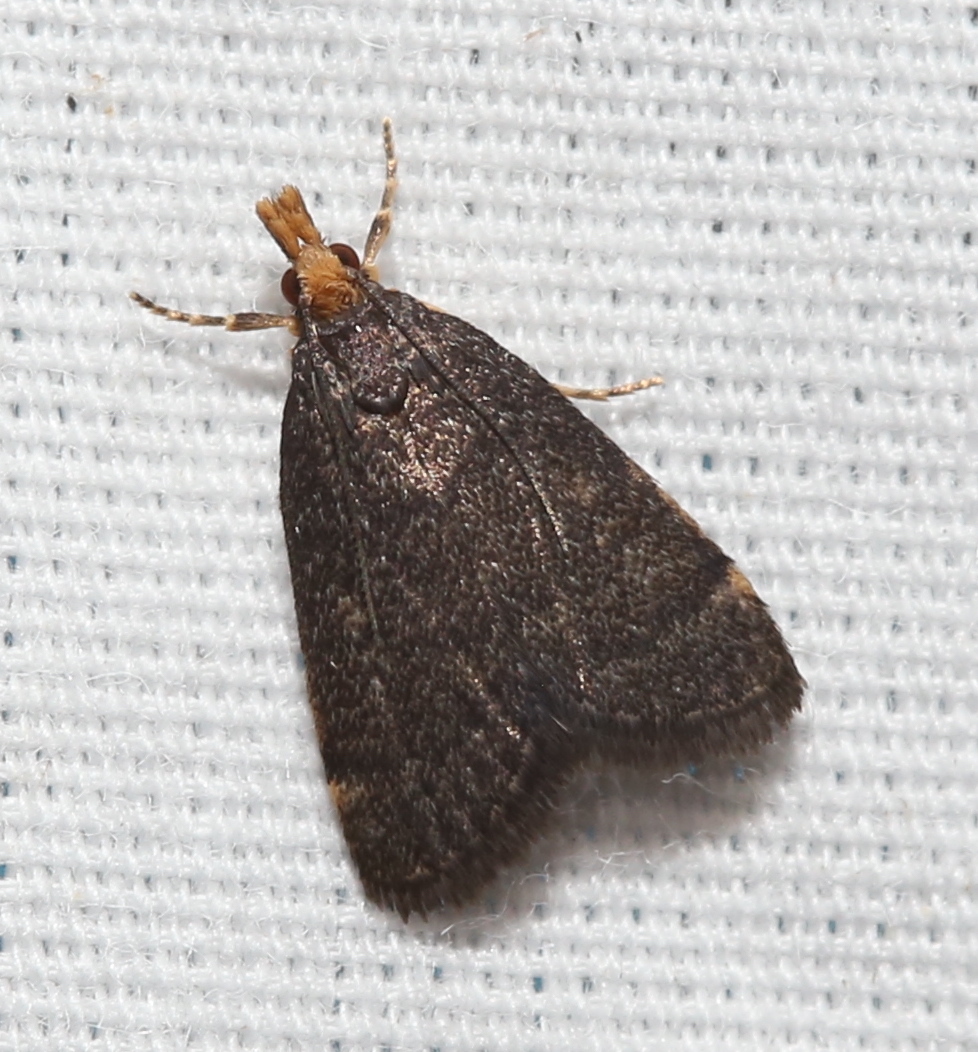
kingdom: Animalia
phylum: Arthropoda
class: Insecta
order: Lepidoptera
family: Crambidae
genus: Pyrausta
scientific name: Pyrausta merrickalis
